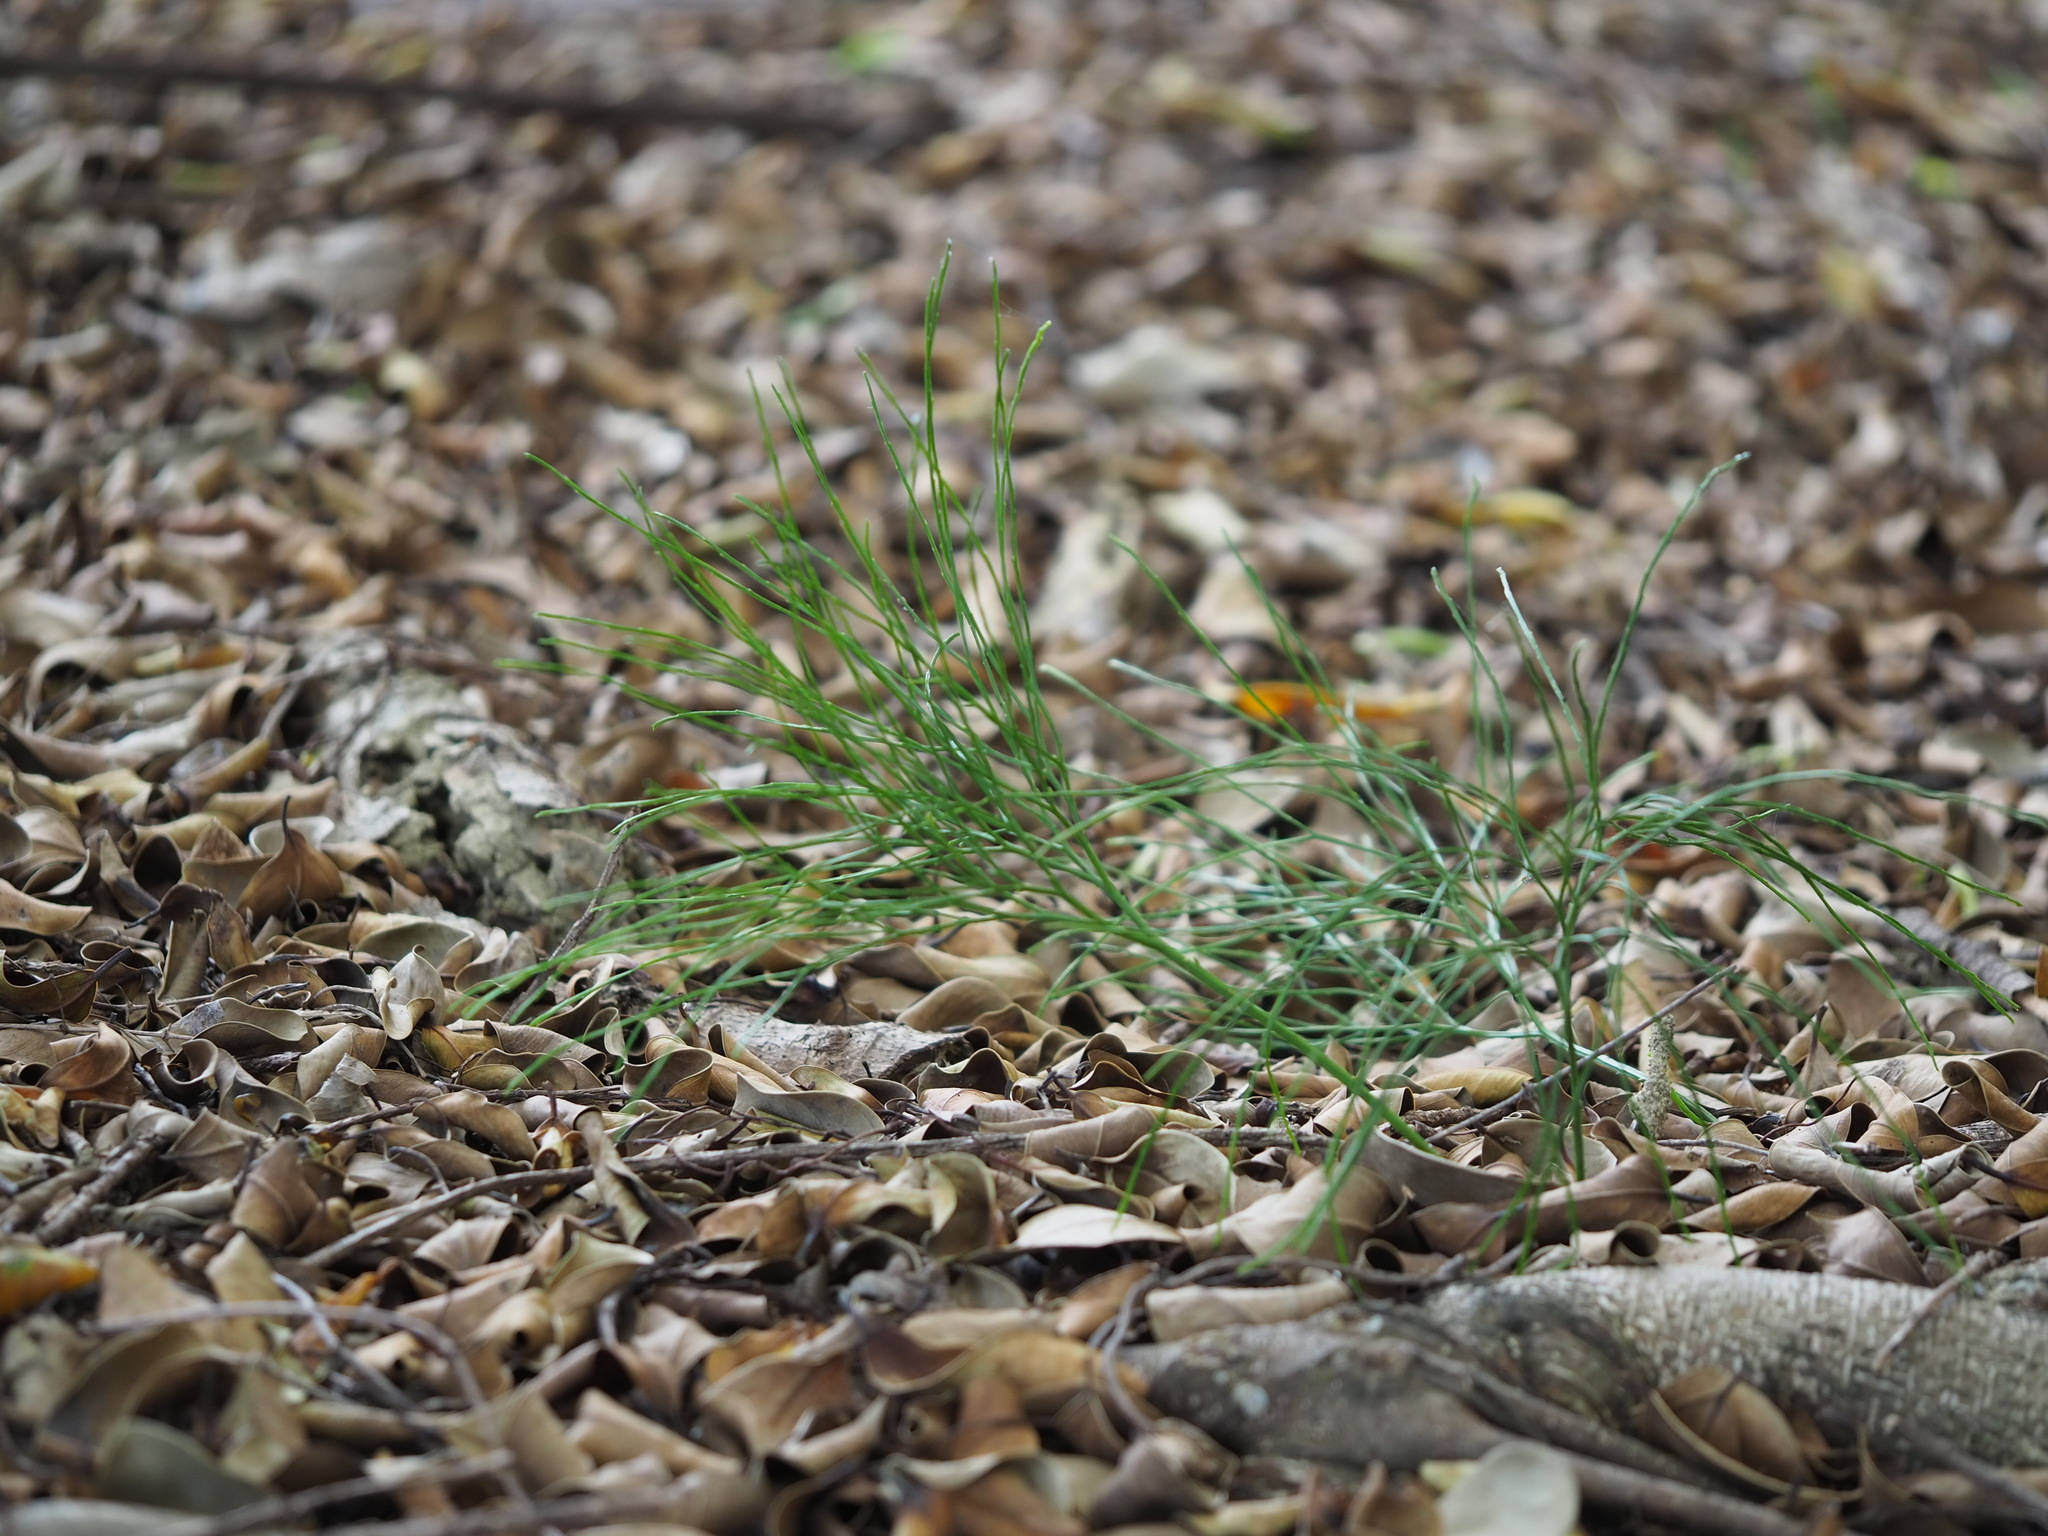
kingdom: Plantae
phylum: Tracheophyta
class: Polypodiopsida
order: Psilotales
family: Psilotaceae
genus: Psilotum
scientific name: Psilotum nudum
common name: Skeleton fork fern
